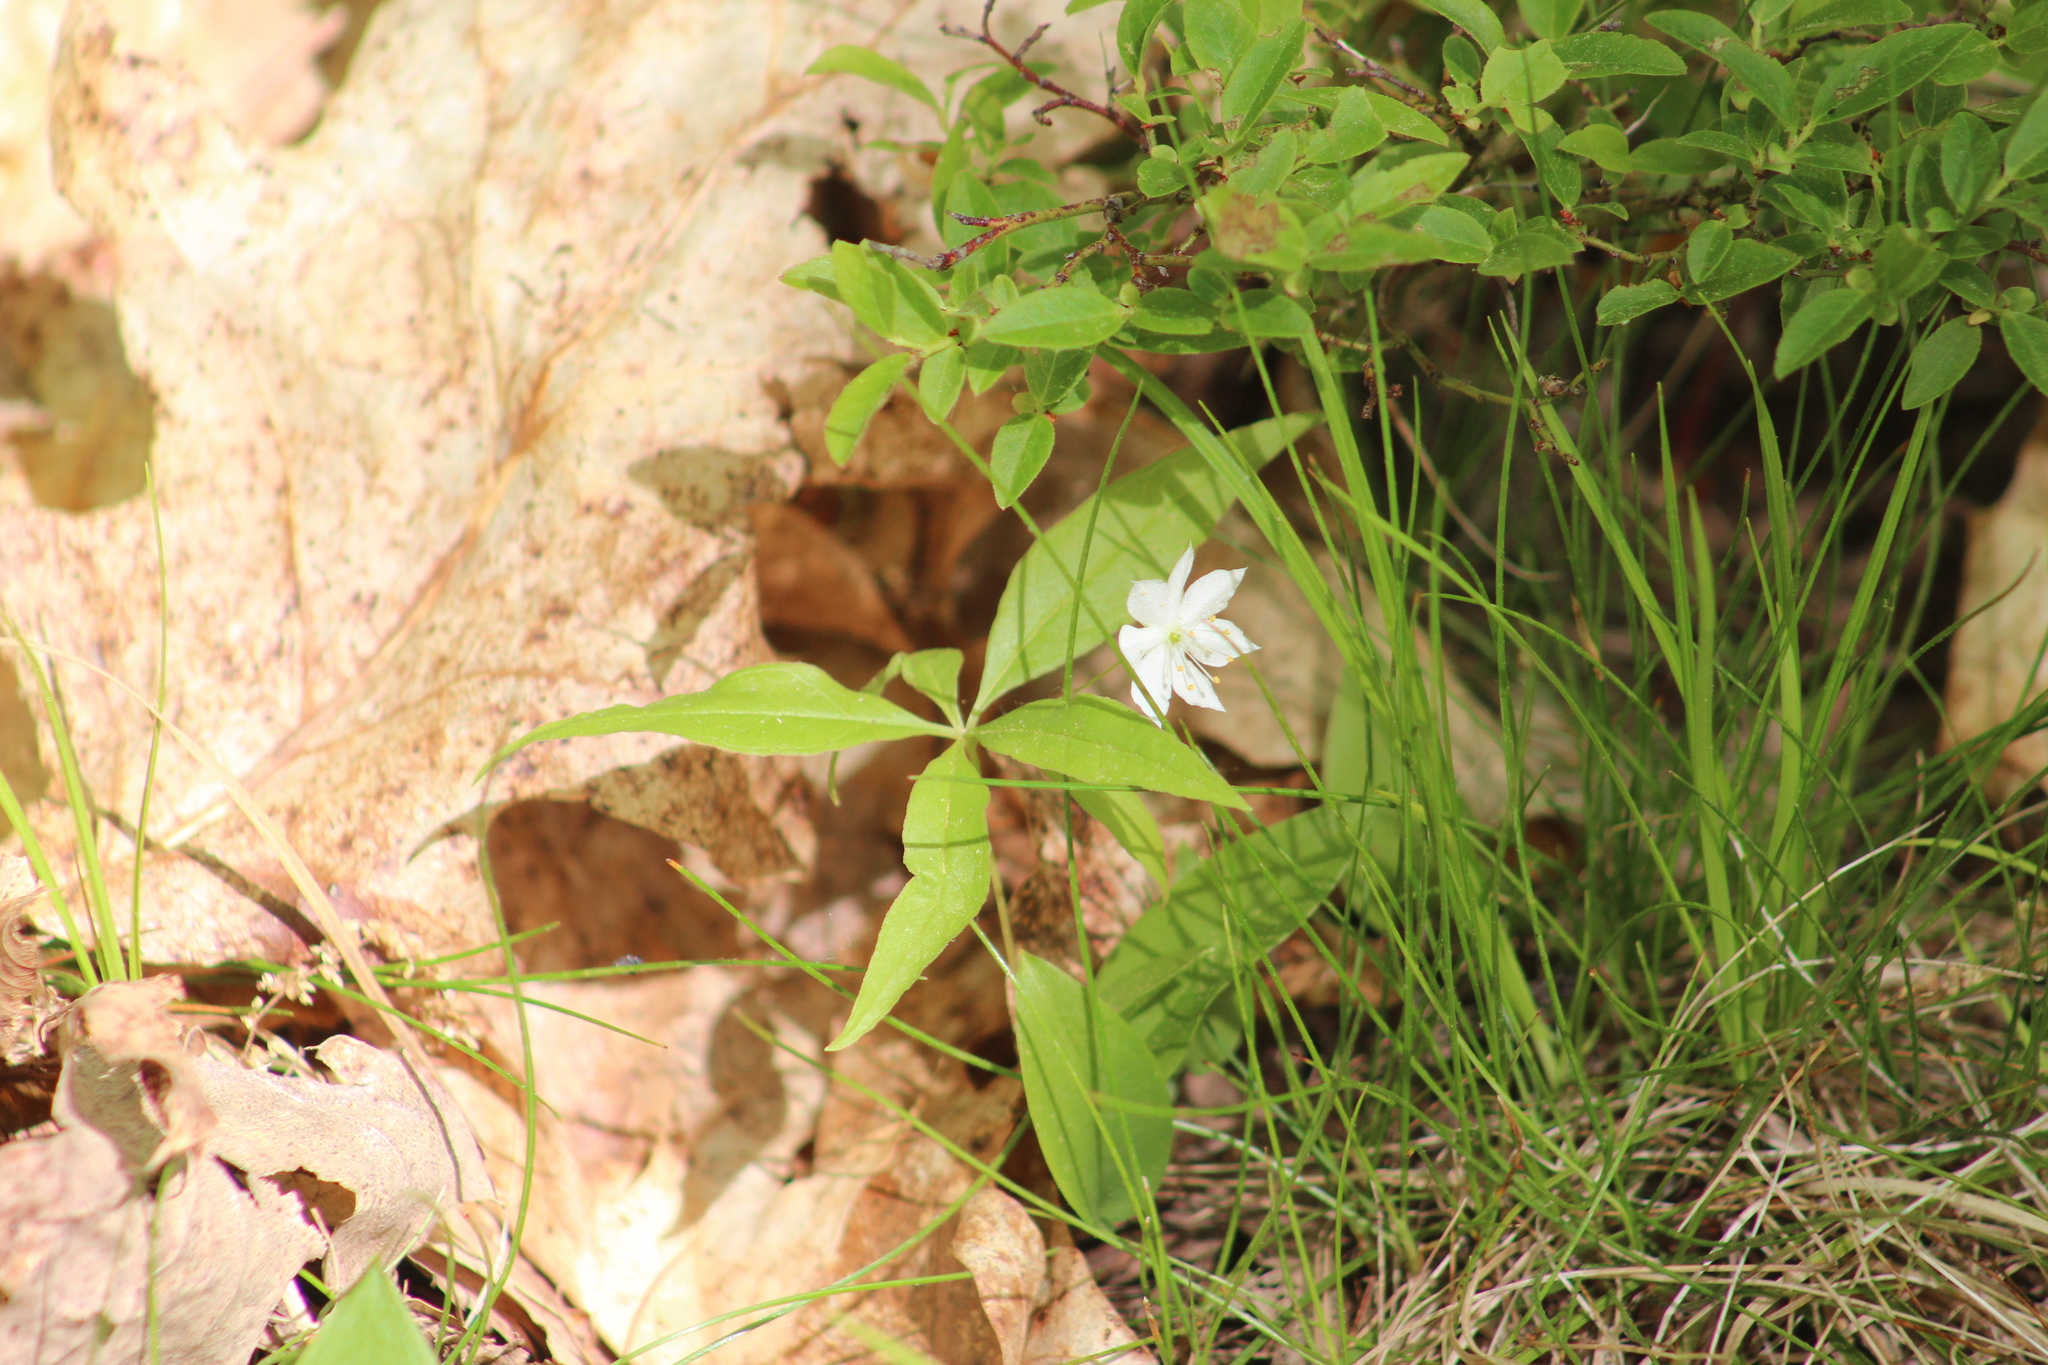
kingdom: Plantae
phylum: Tracheophyta
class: Magnoliopsida
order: Ericales
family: Primulaceae
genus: Lysimachia
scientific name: Lysimachia borealis
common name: American starflower
